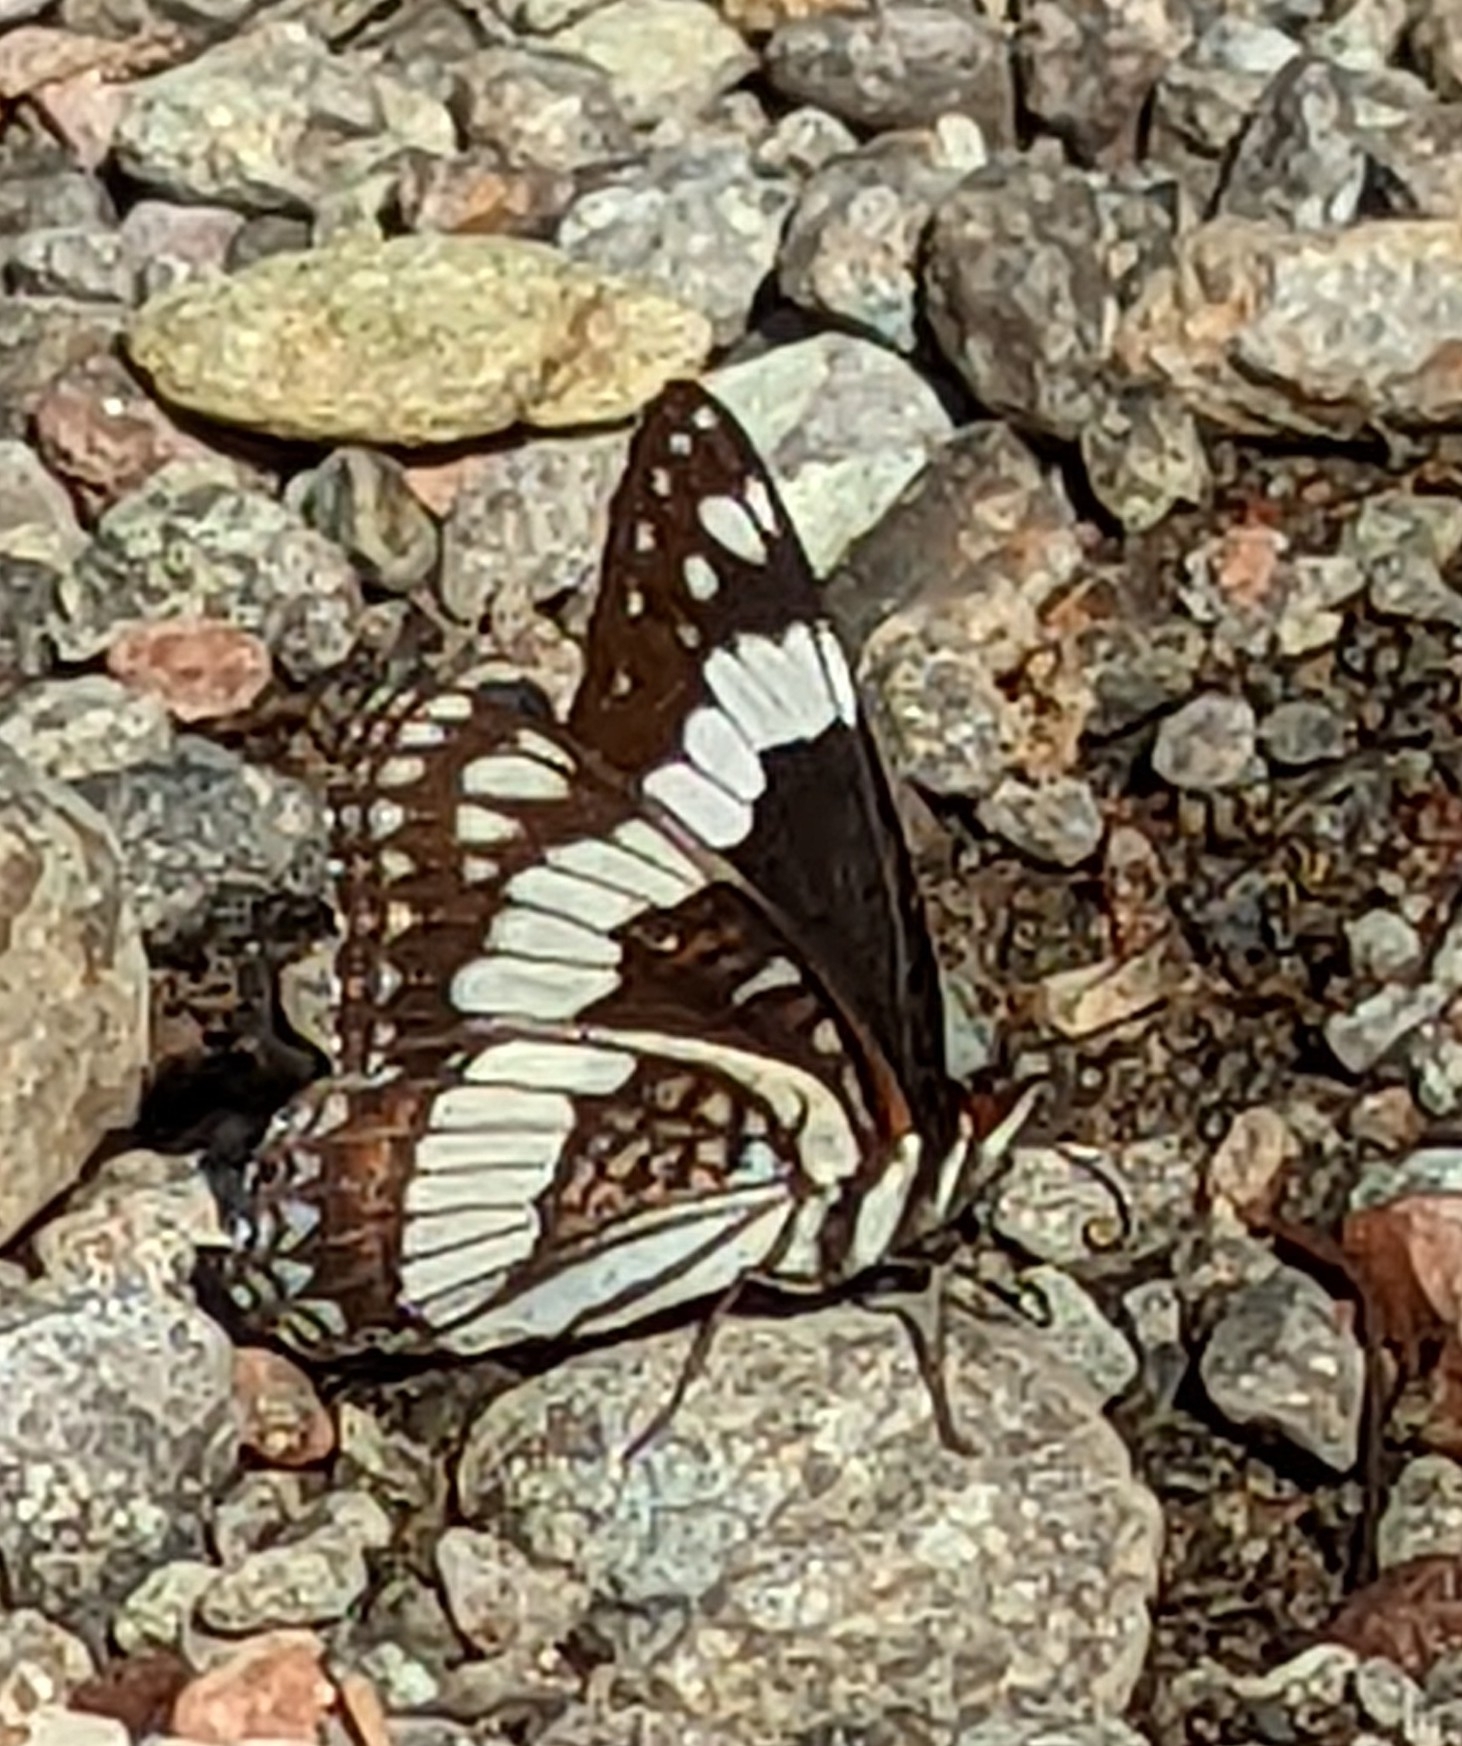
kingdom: Animalia
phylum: Arthropoda
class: Insecta
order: Lepidoptera
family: Nymphalidae
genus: Limenitis
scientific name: Limenitis weidemeyerii
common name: Weidemeyer's admiral
